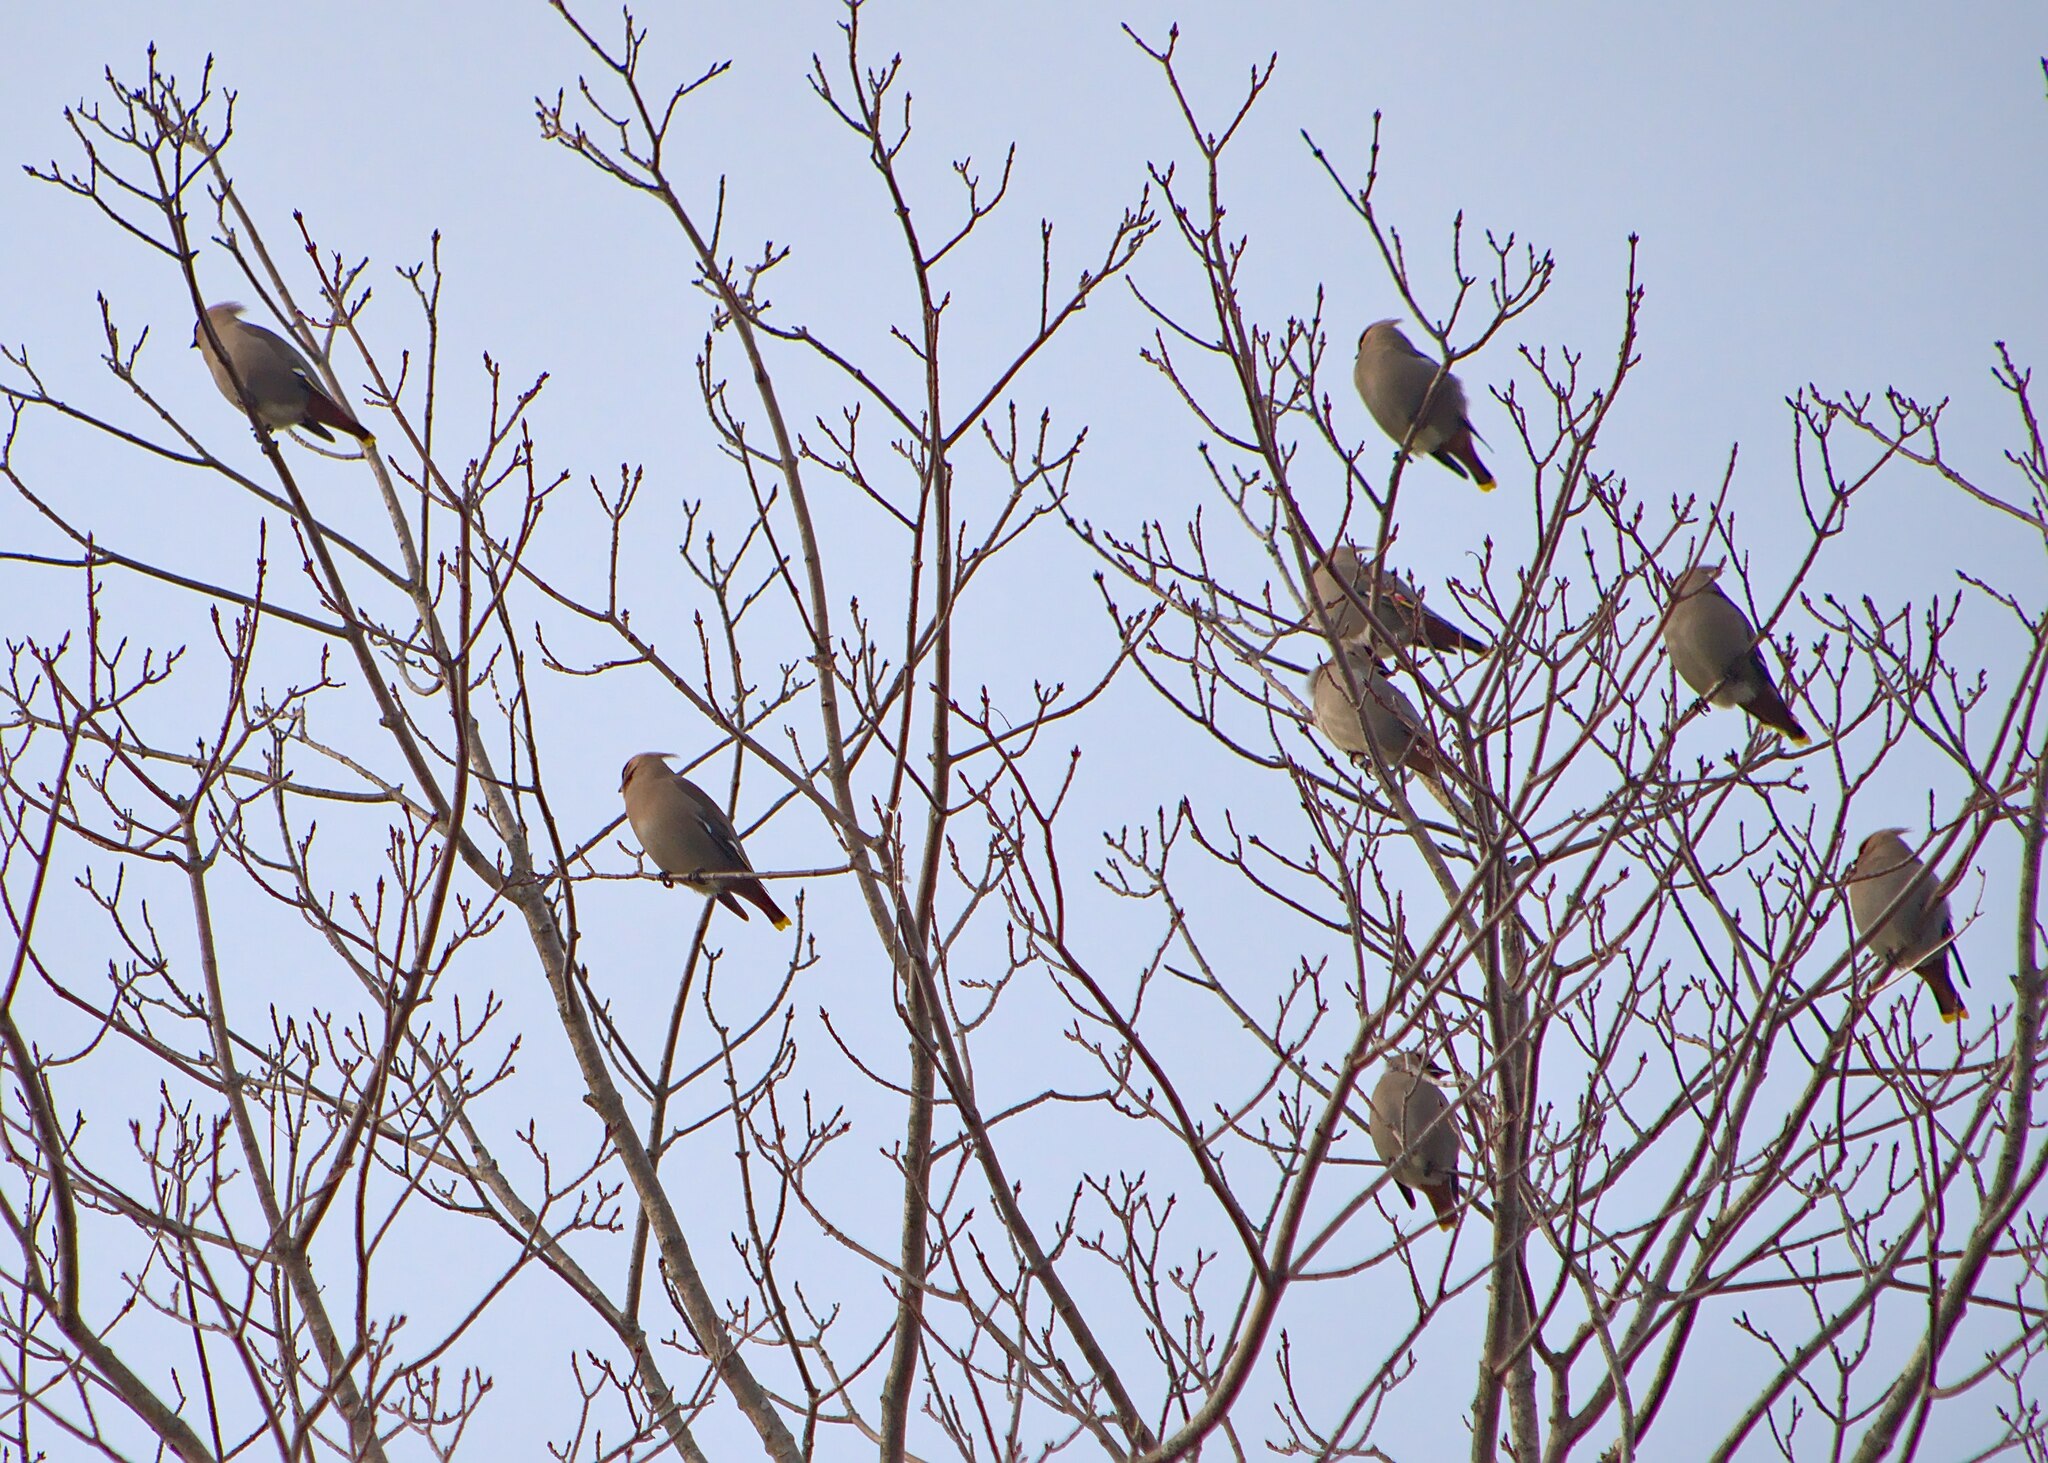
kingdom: Animalia
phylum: Chordata
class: Aves
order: Passeriformes
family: Bombycillidae
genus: Bombycilla
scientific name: Bombycilla garrulus
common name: Bohemian waxwing
